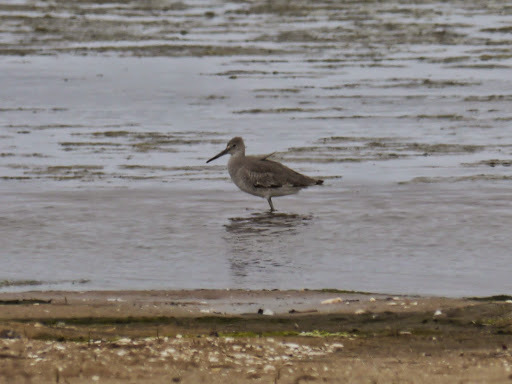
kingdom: Animalia
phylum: Chordata
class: Aves
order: Charadriiformes
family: Scolopacidae
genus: Tringa
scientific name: Tringa semipalmata
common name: Willet
